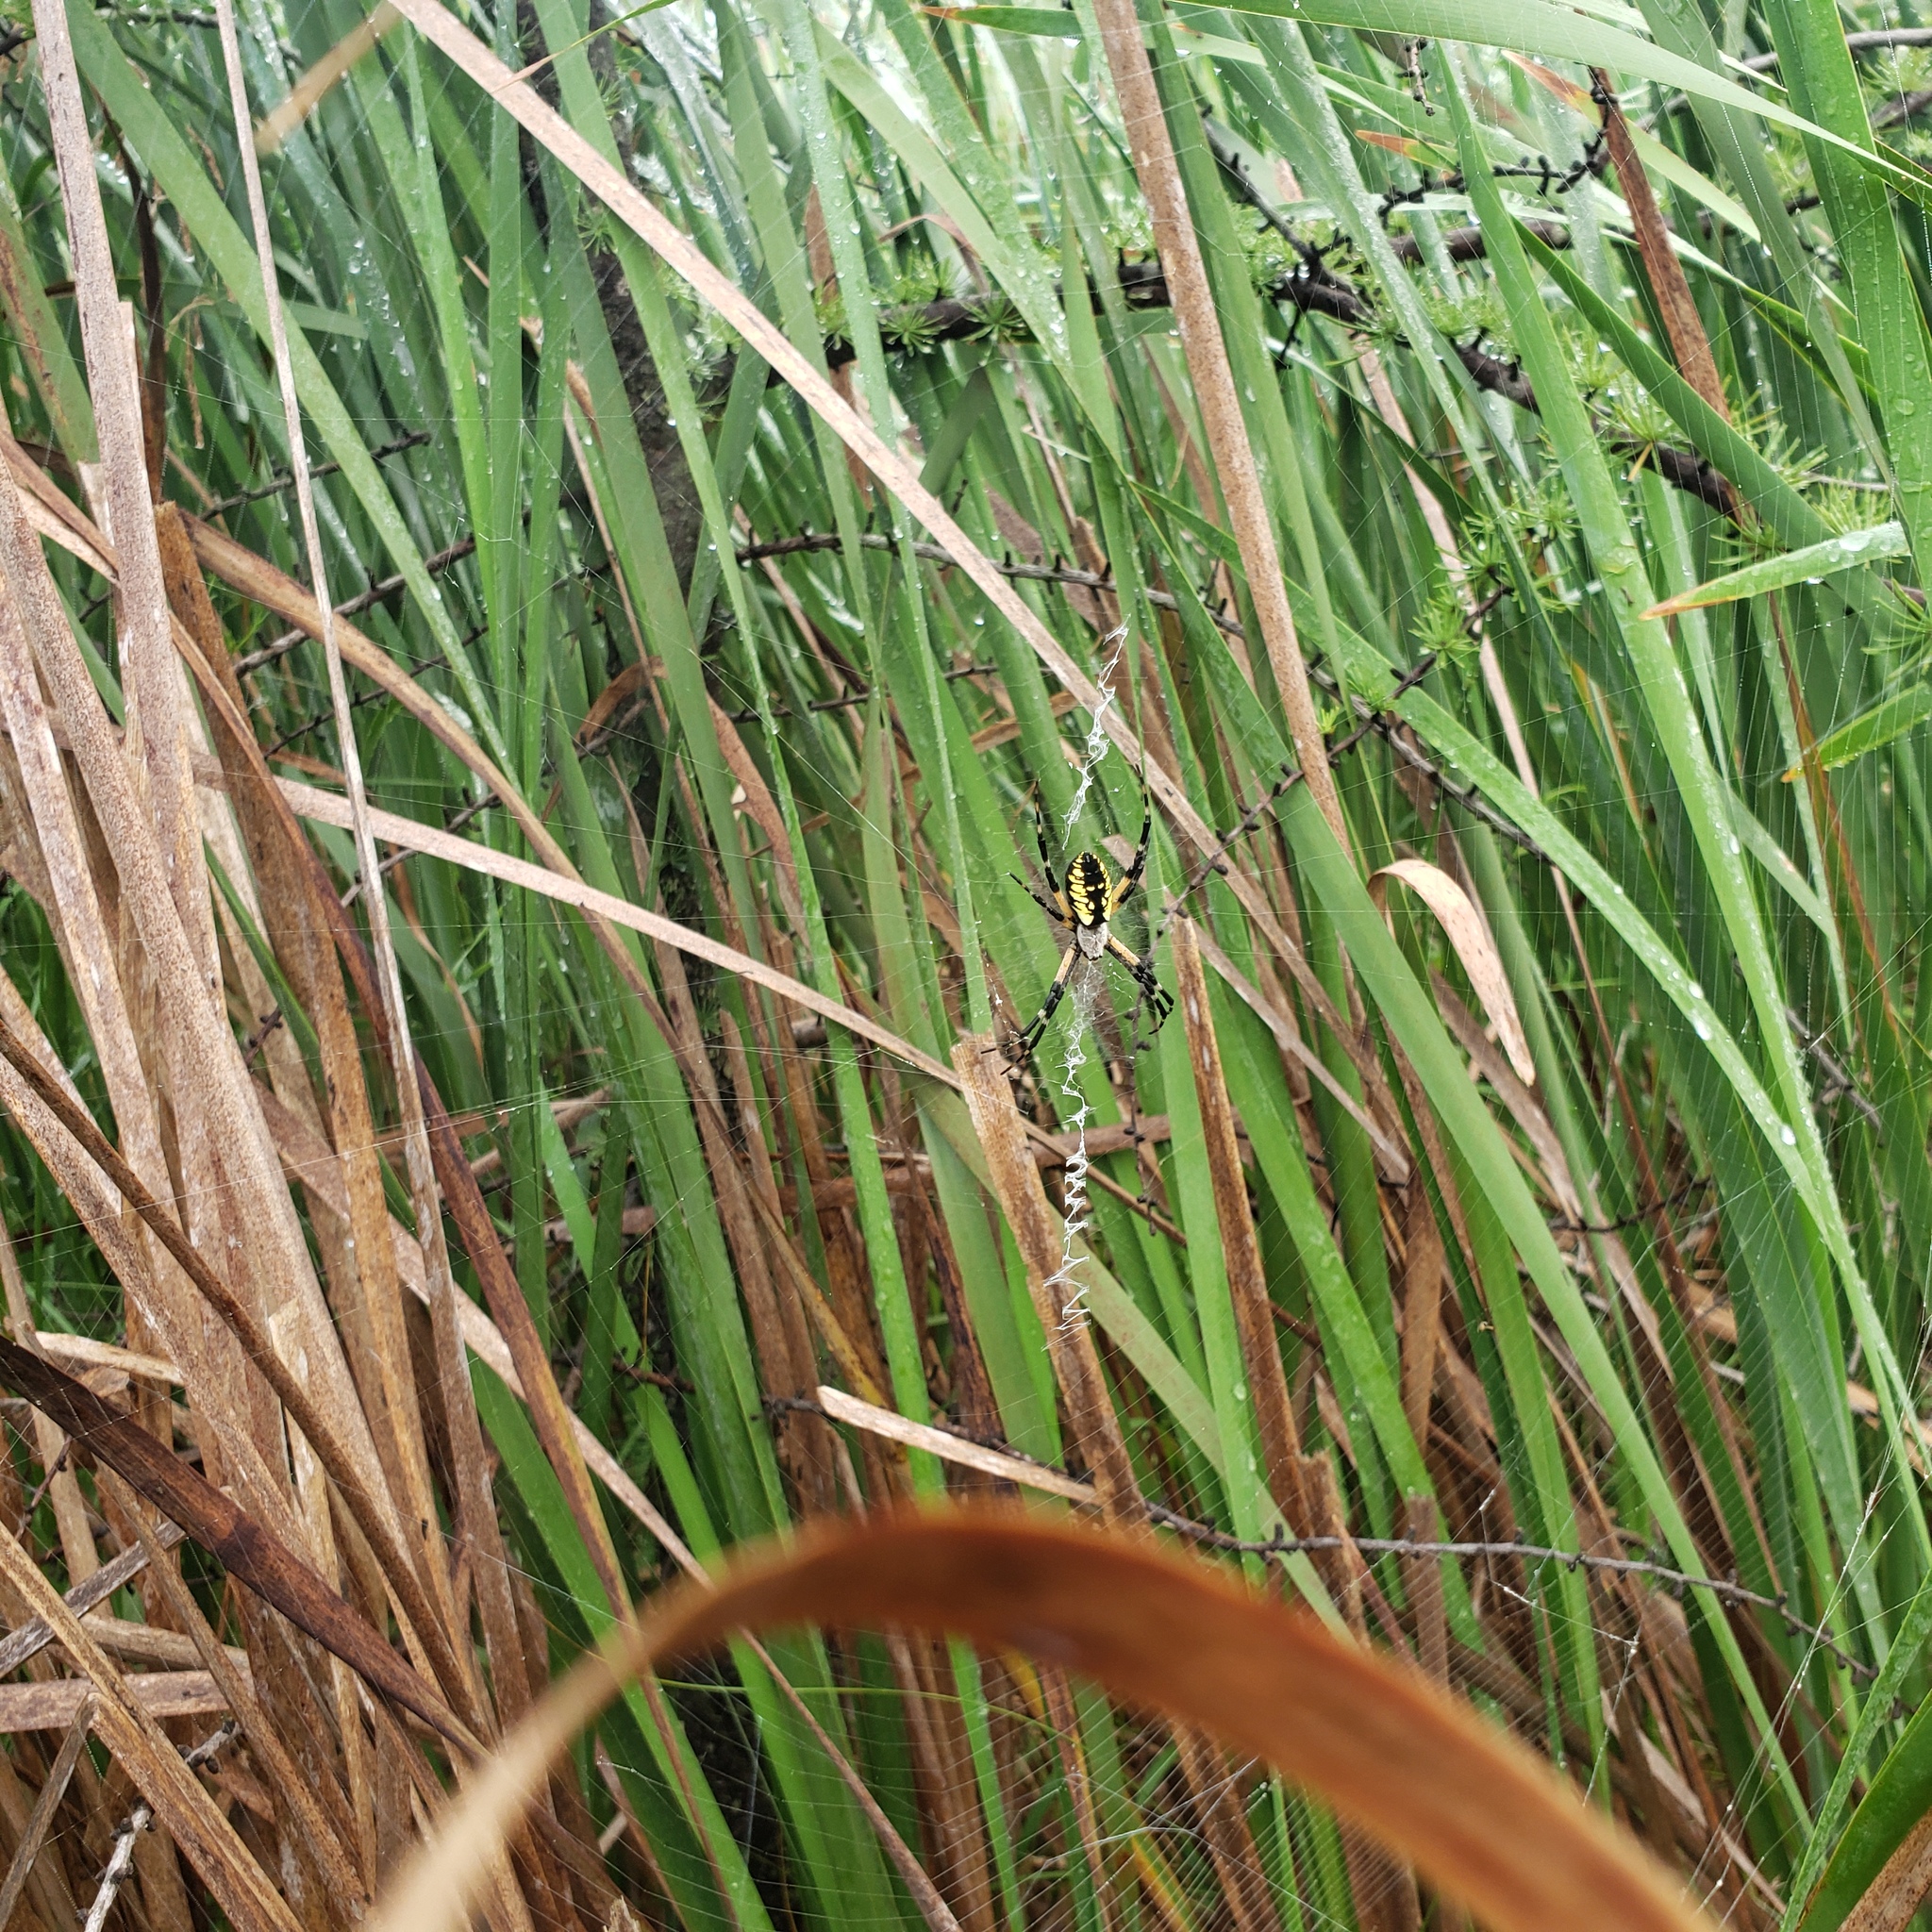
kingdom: Animalia
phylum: Arthropoda
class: Arachnida
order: Araneae
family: Araneidae
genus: Argiope
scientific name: Argiope aurantia
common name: Orb weavers
